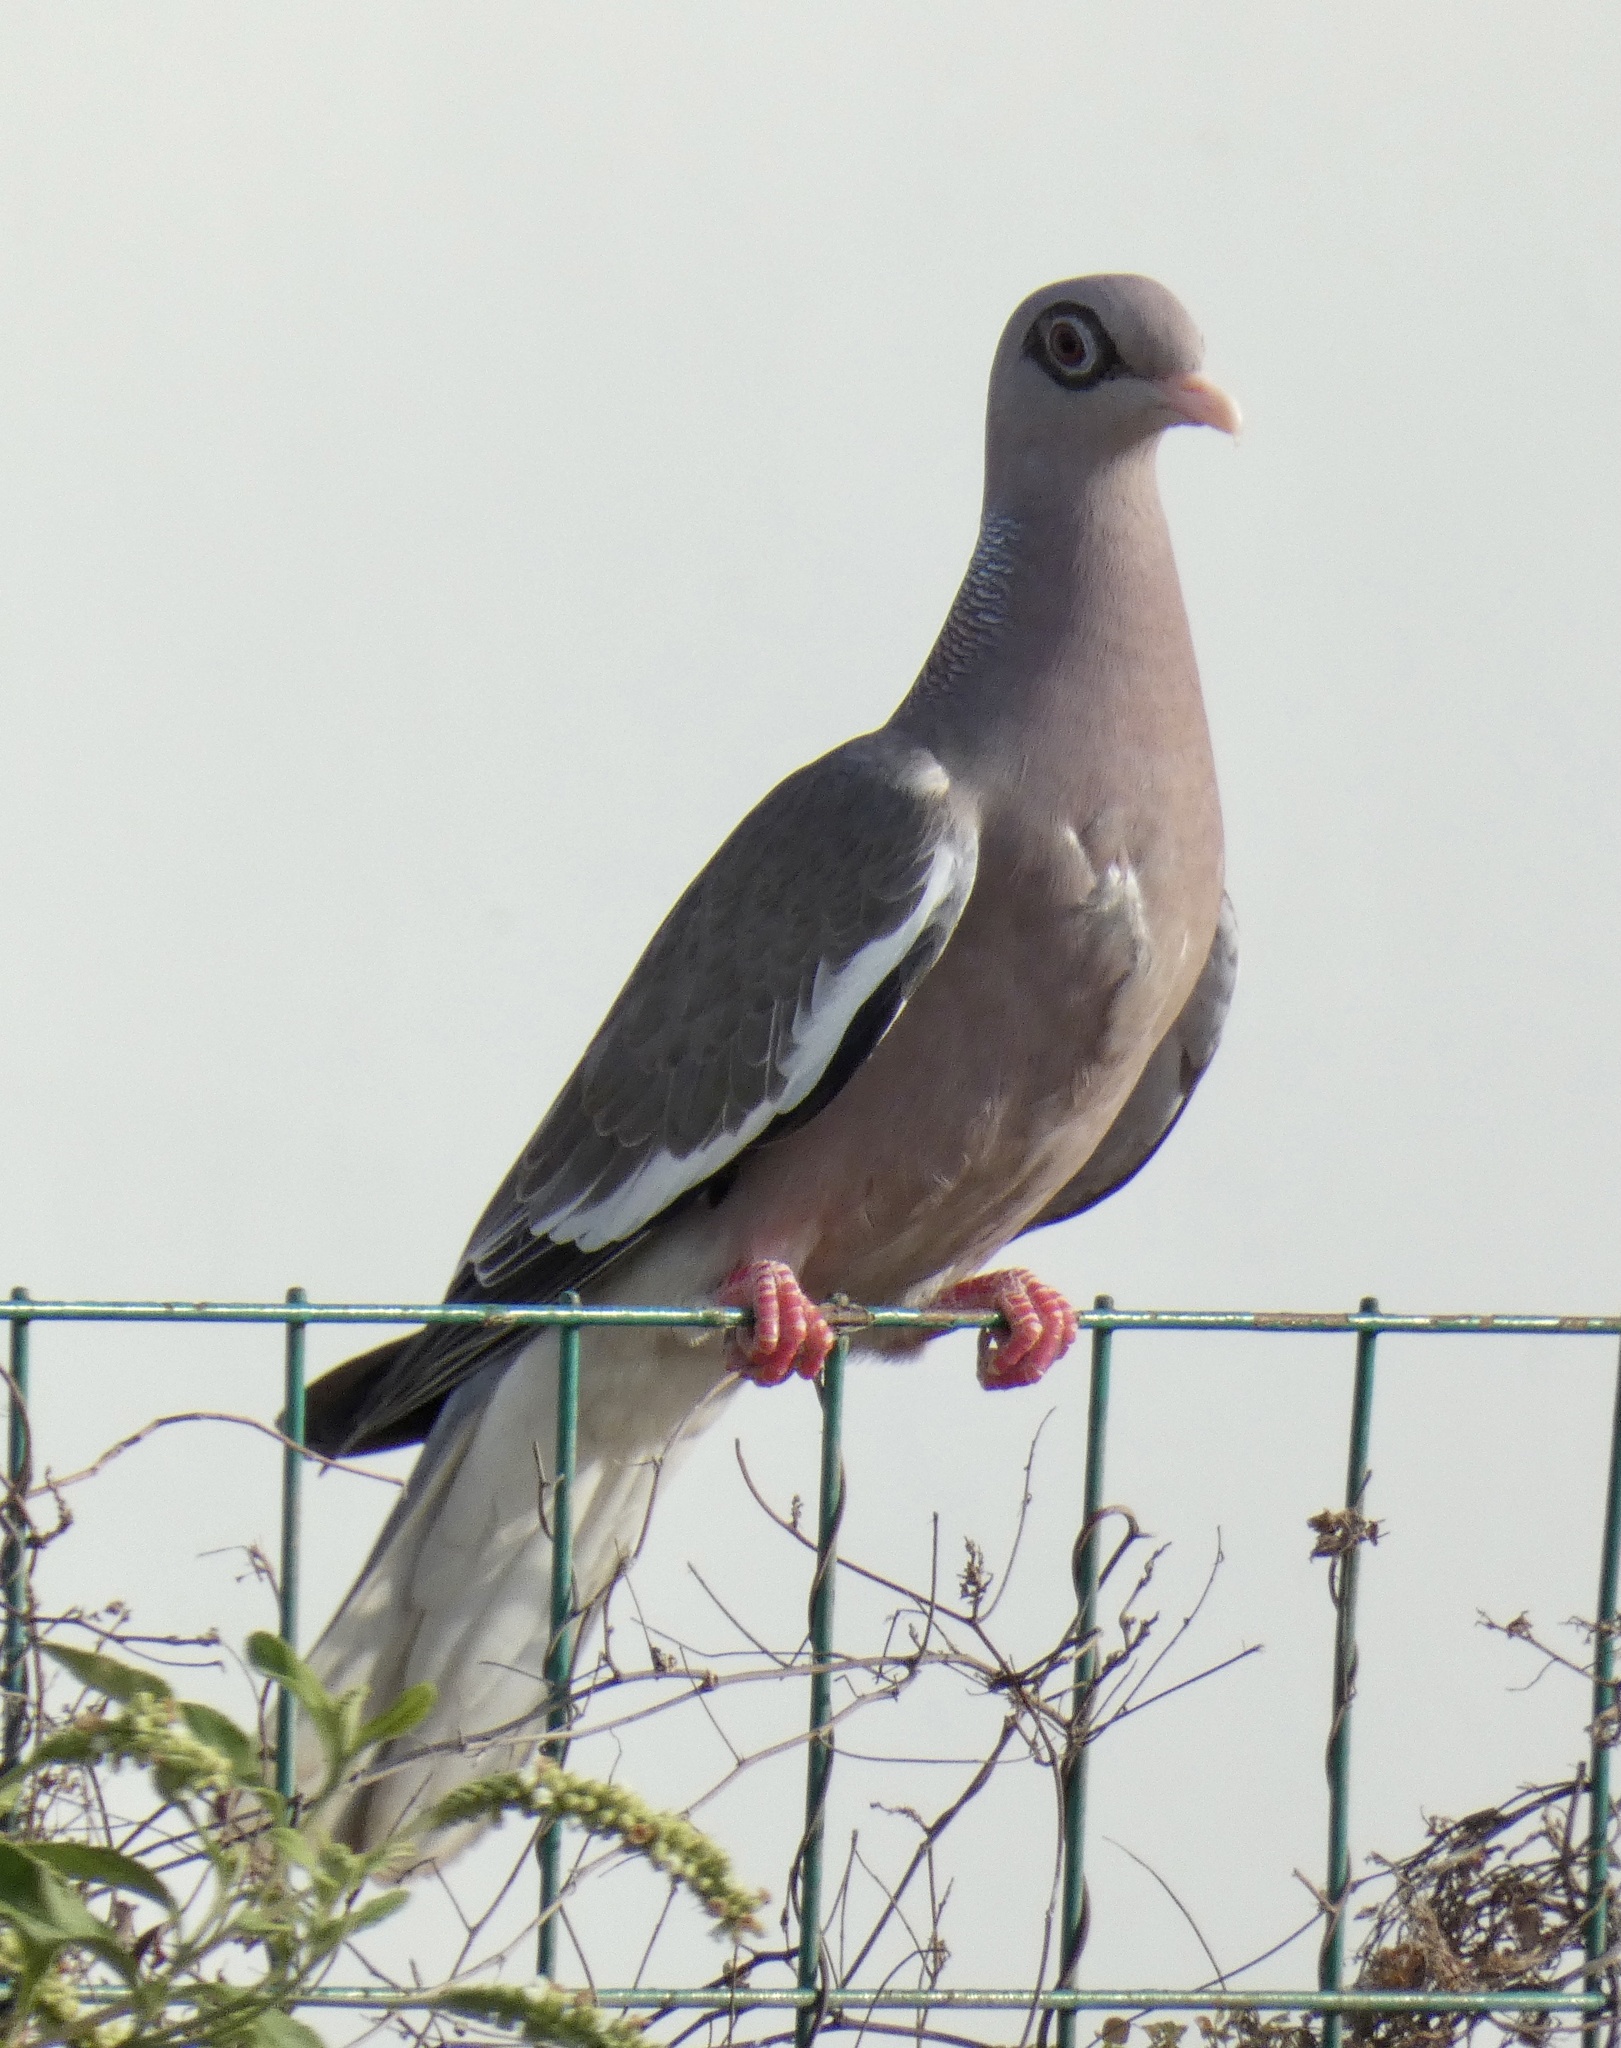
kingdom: Animalia
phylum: Chordata
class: Aves
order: Columbiformes
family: Columbidae
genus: Patagioenas
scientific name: Patagioenas corensis
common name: Bare-eyed pigeon
